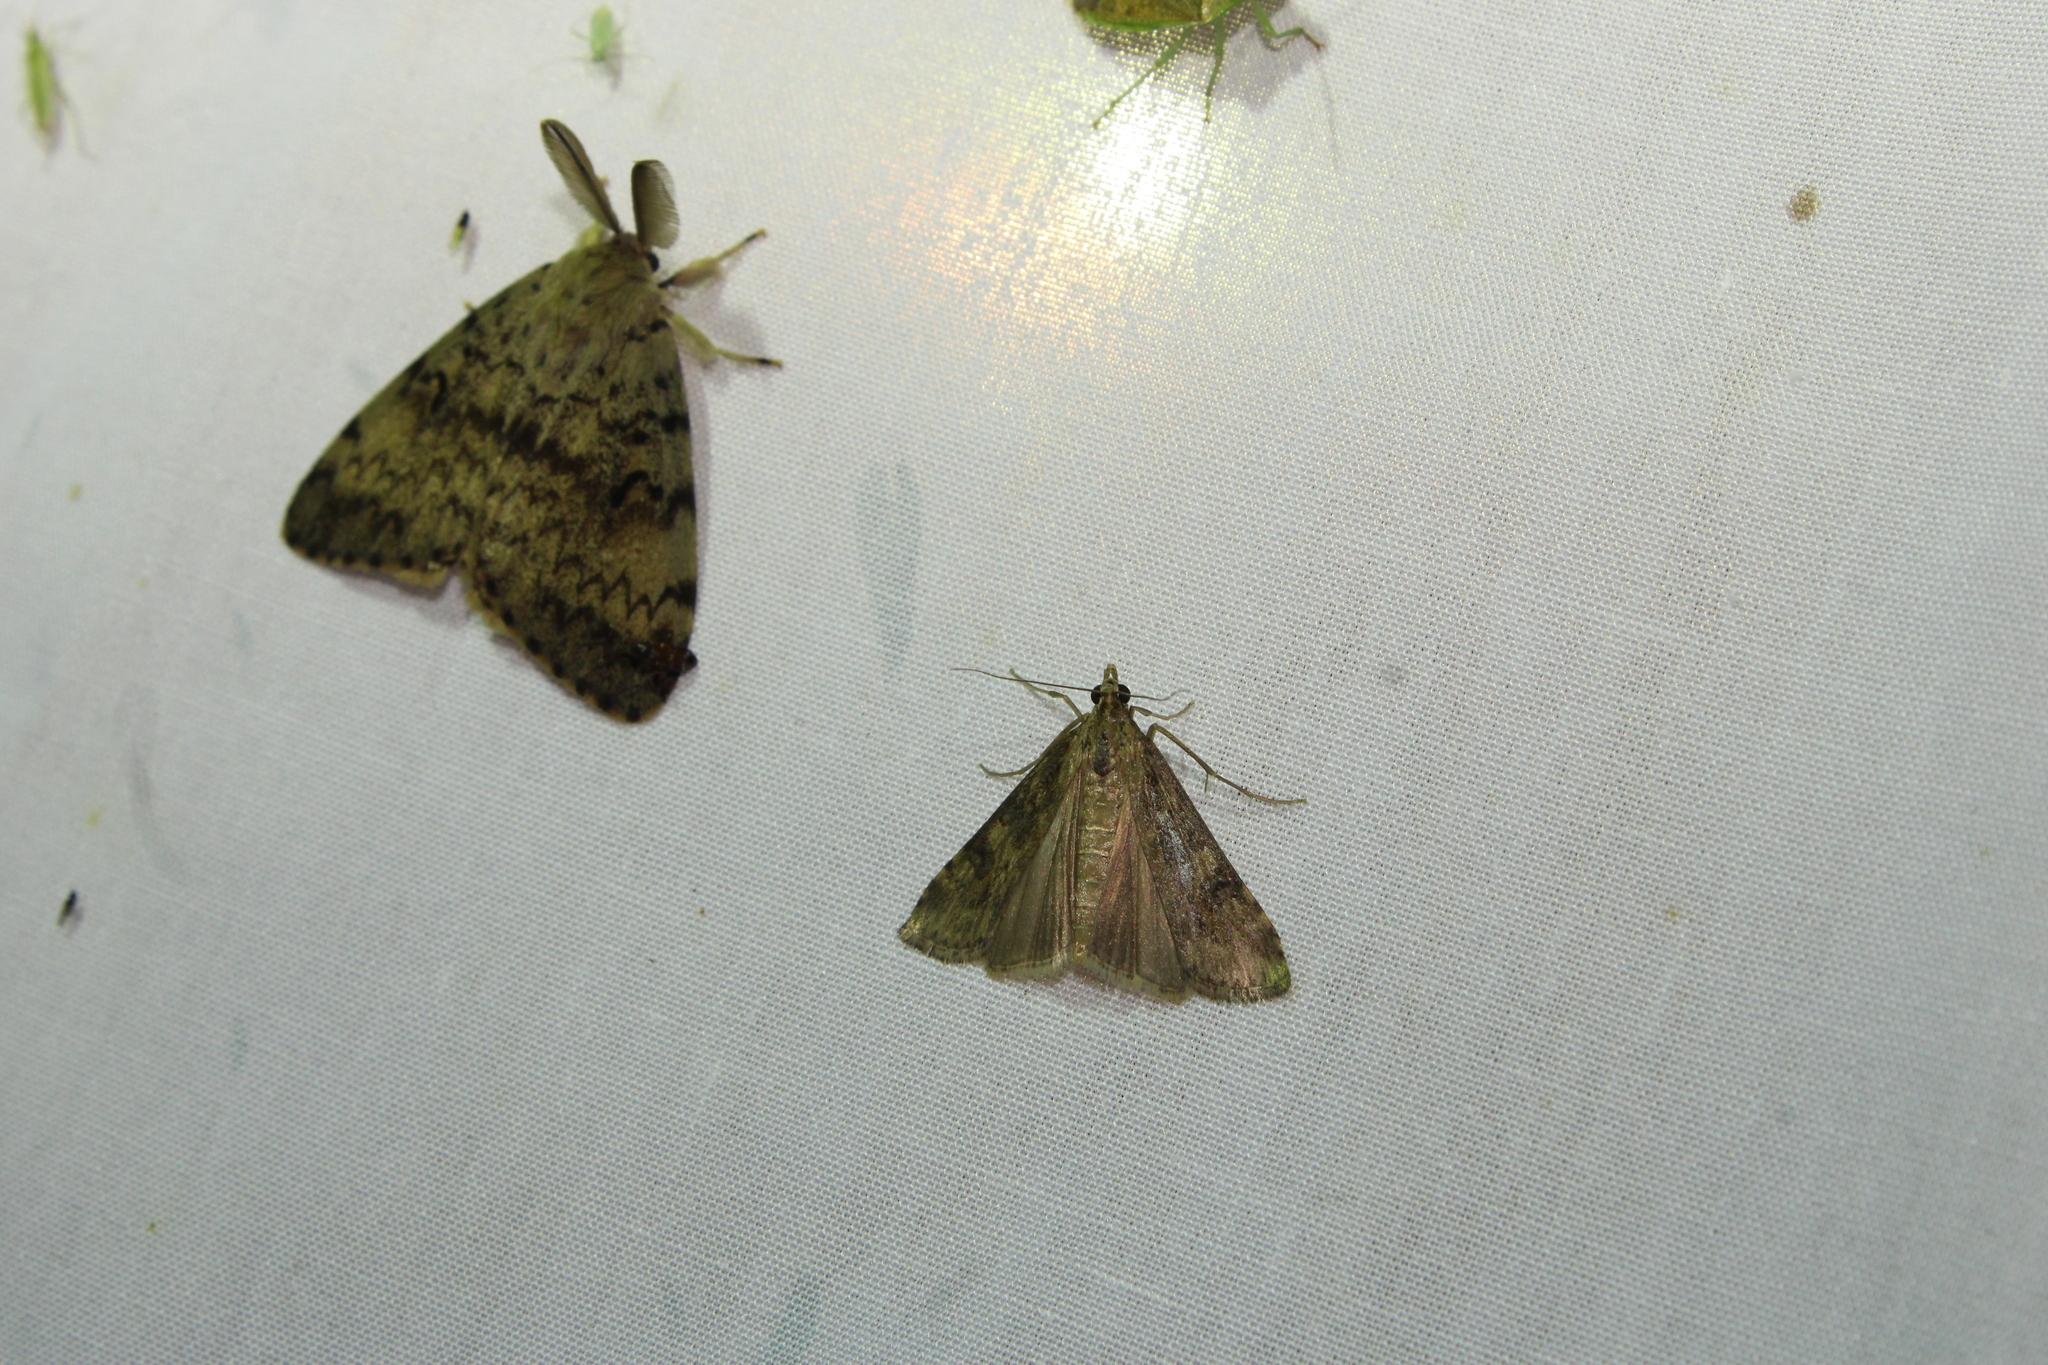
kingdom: Animalia
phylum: Arthropoda
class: Insecta
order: Lepidoptera
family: Crambidae
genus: Nomophila
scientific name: Nomophila nearctica
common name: American rush veneer
